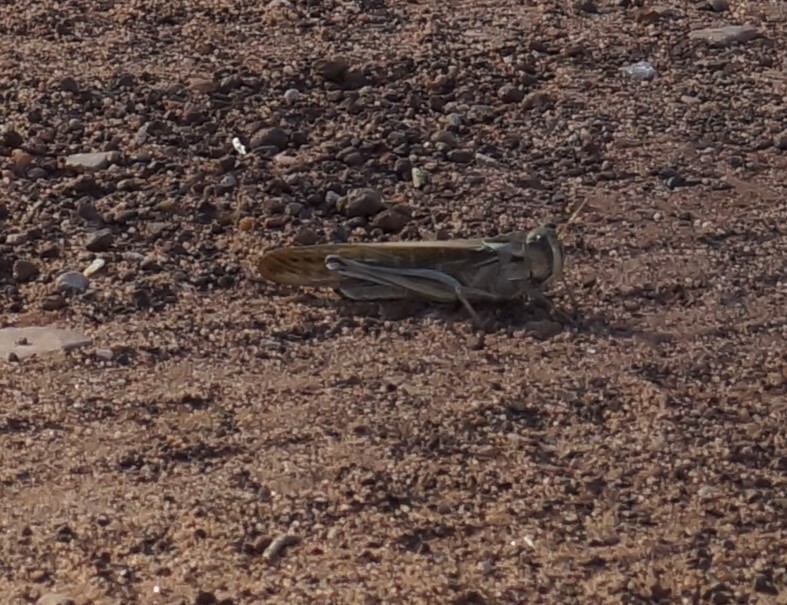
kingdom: Animalia
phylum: Arthropoda
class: Insecta
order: Orthoptera
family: Acrididae
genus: Locusta
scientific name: Locusta migratoria
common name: Migratory locust
